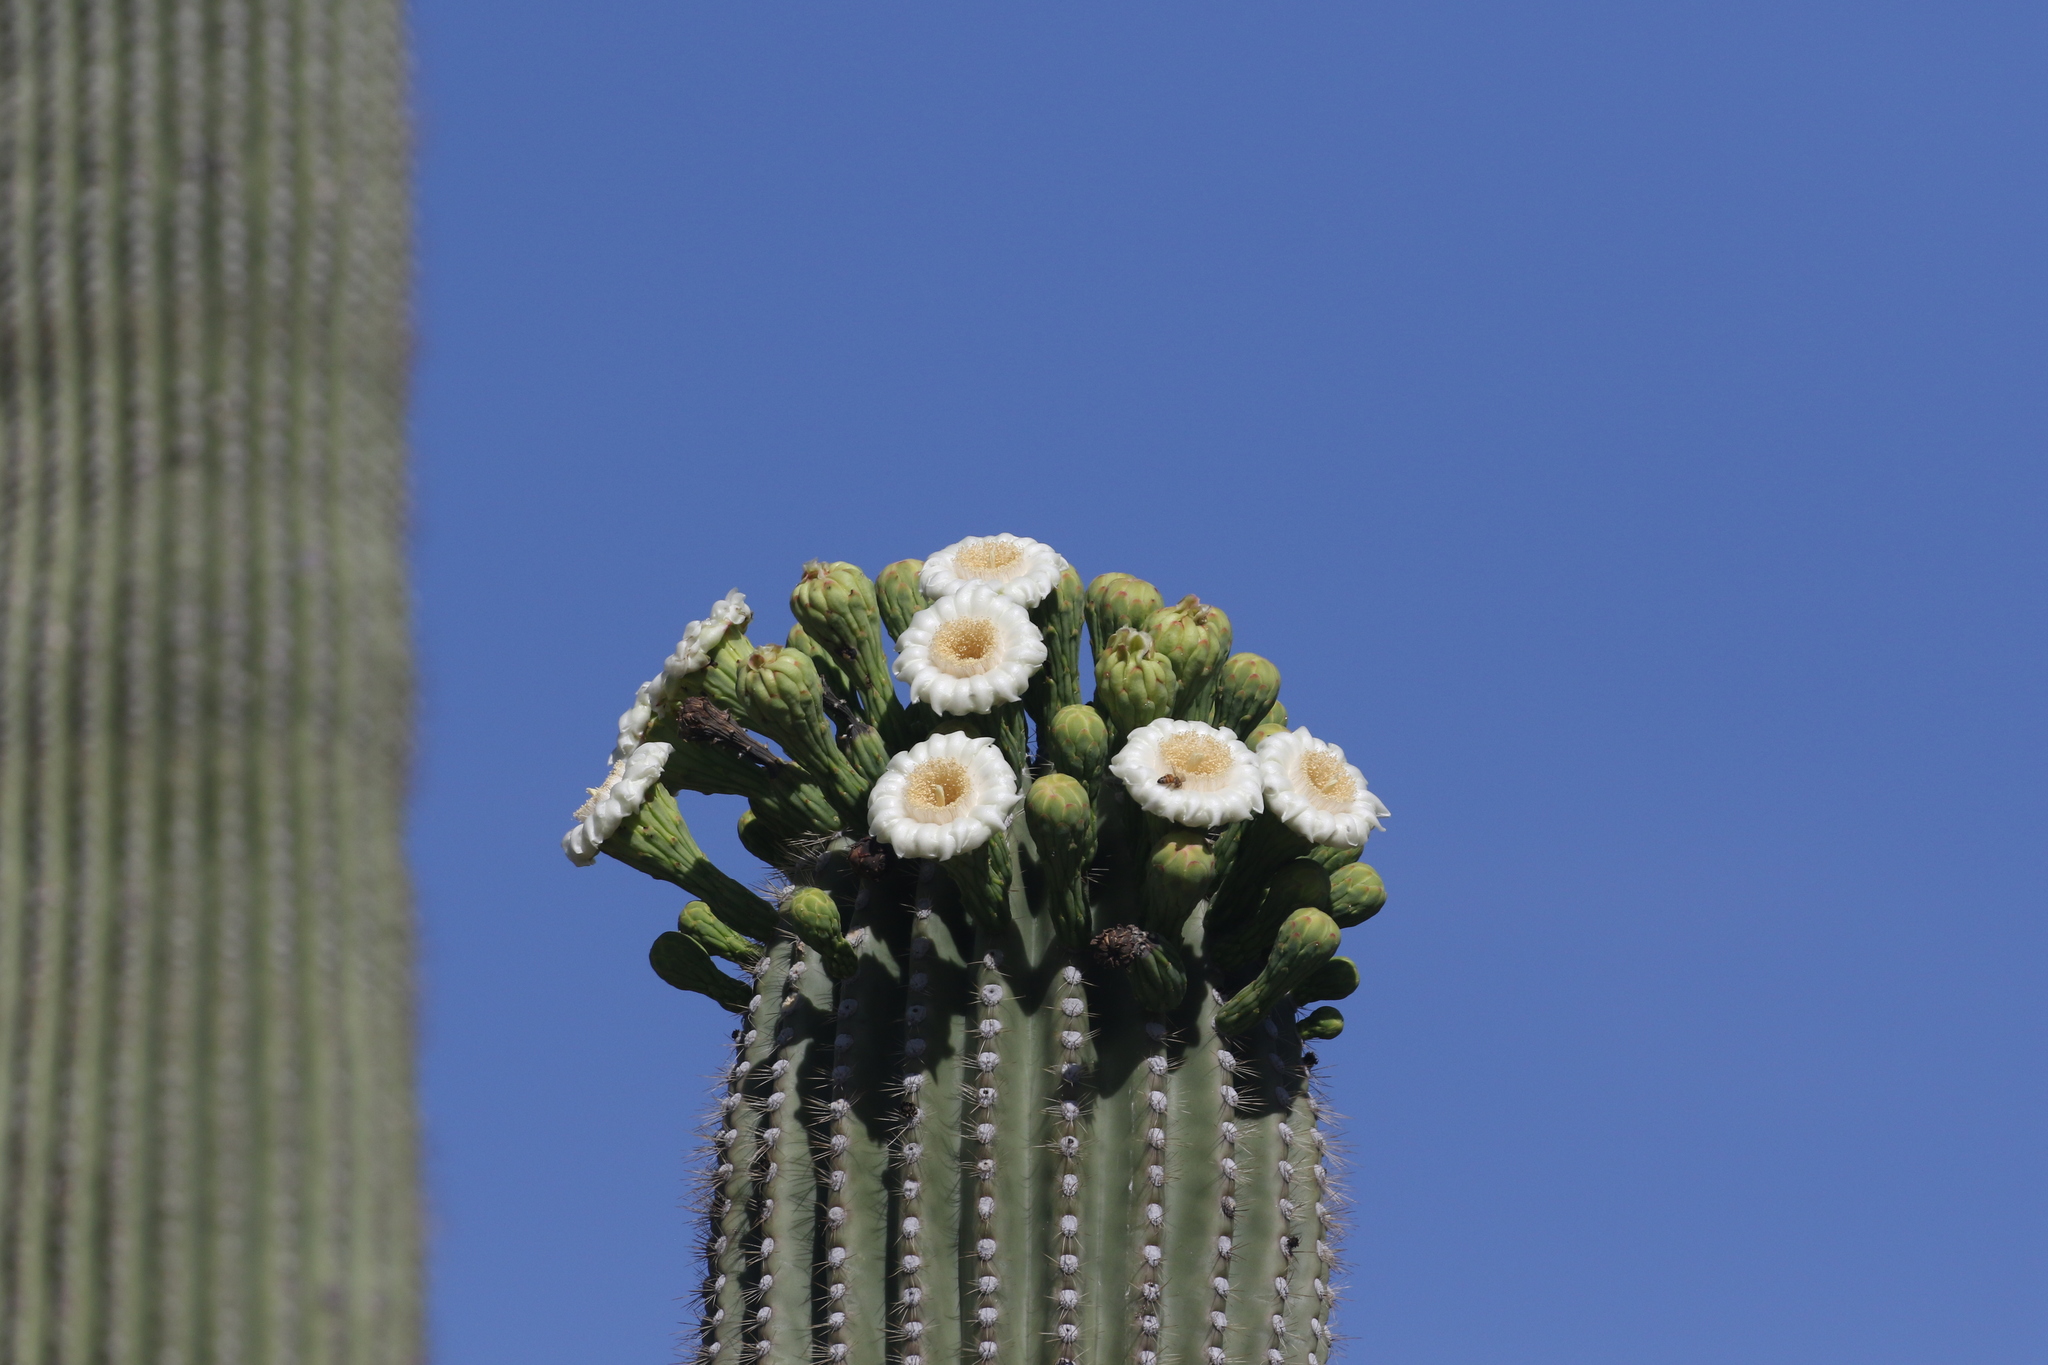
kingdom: Plantae
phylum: Tracheophyta
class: Magnoliopsida
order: Caryophyllales
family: Cactaceae
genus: Carnegiea
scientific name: Carnegiea gigantea
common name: Saguaro
